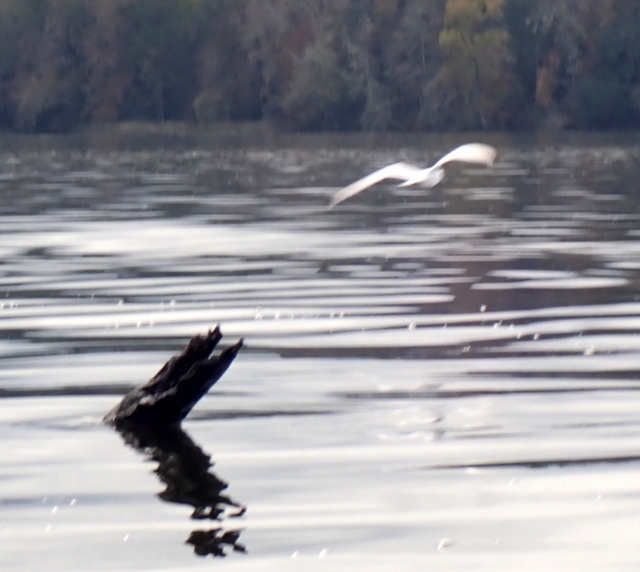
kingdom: Animalia
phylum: Chordata
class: Aves
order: Charadriiformes
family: Laridae
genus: Sterna
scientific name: Sterna forsteri
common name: Forster's tern
